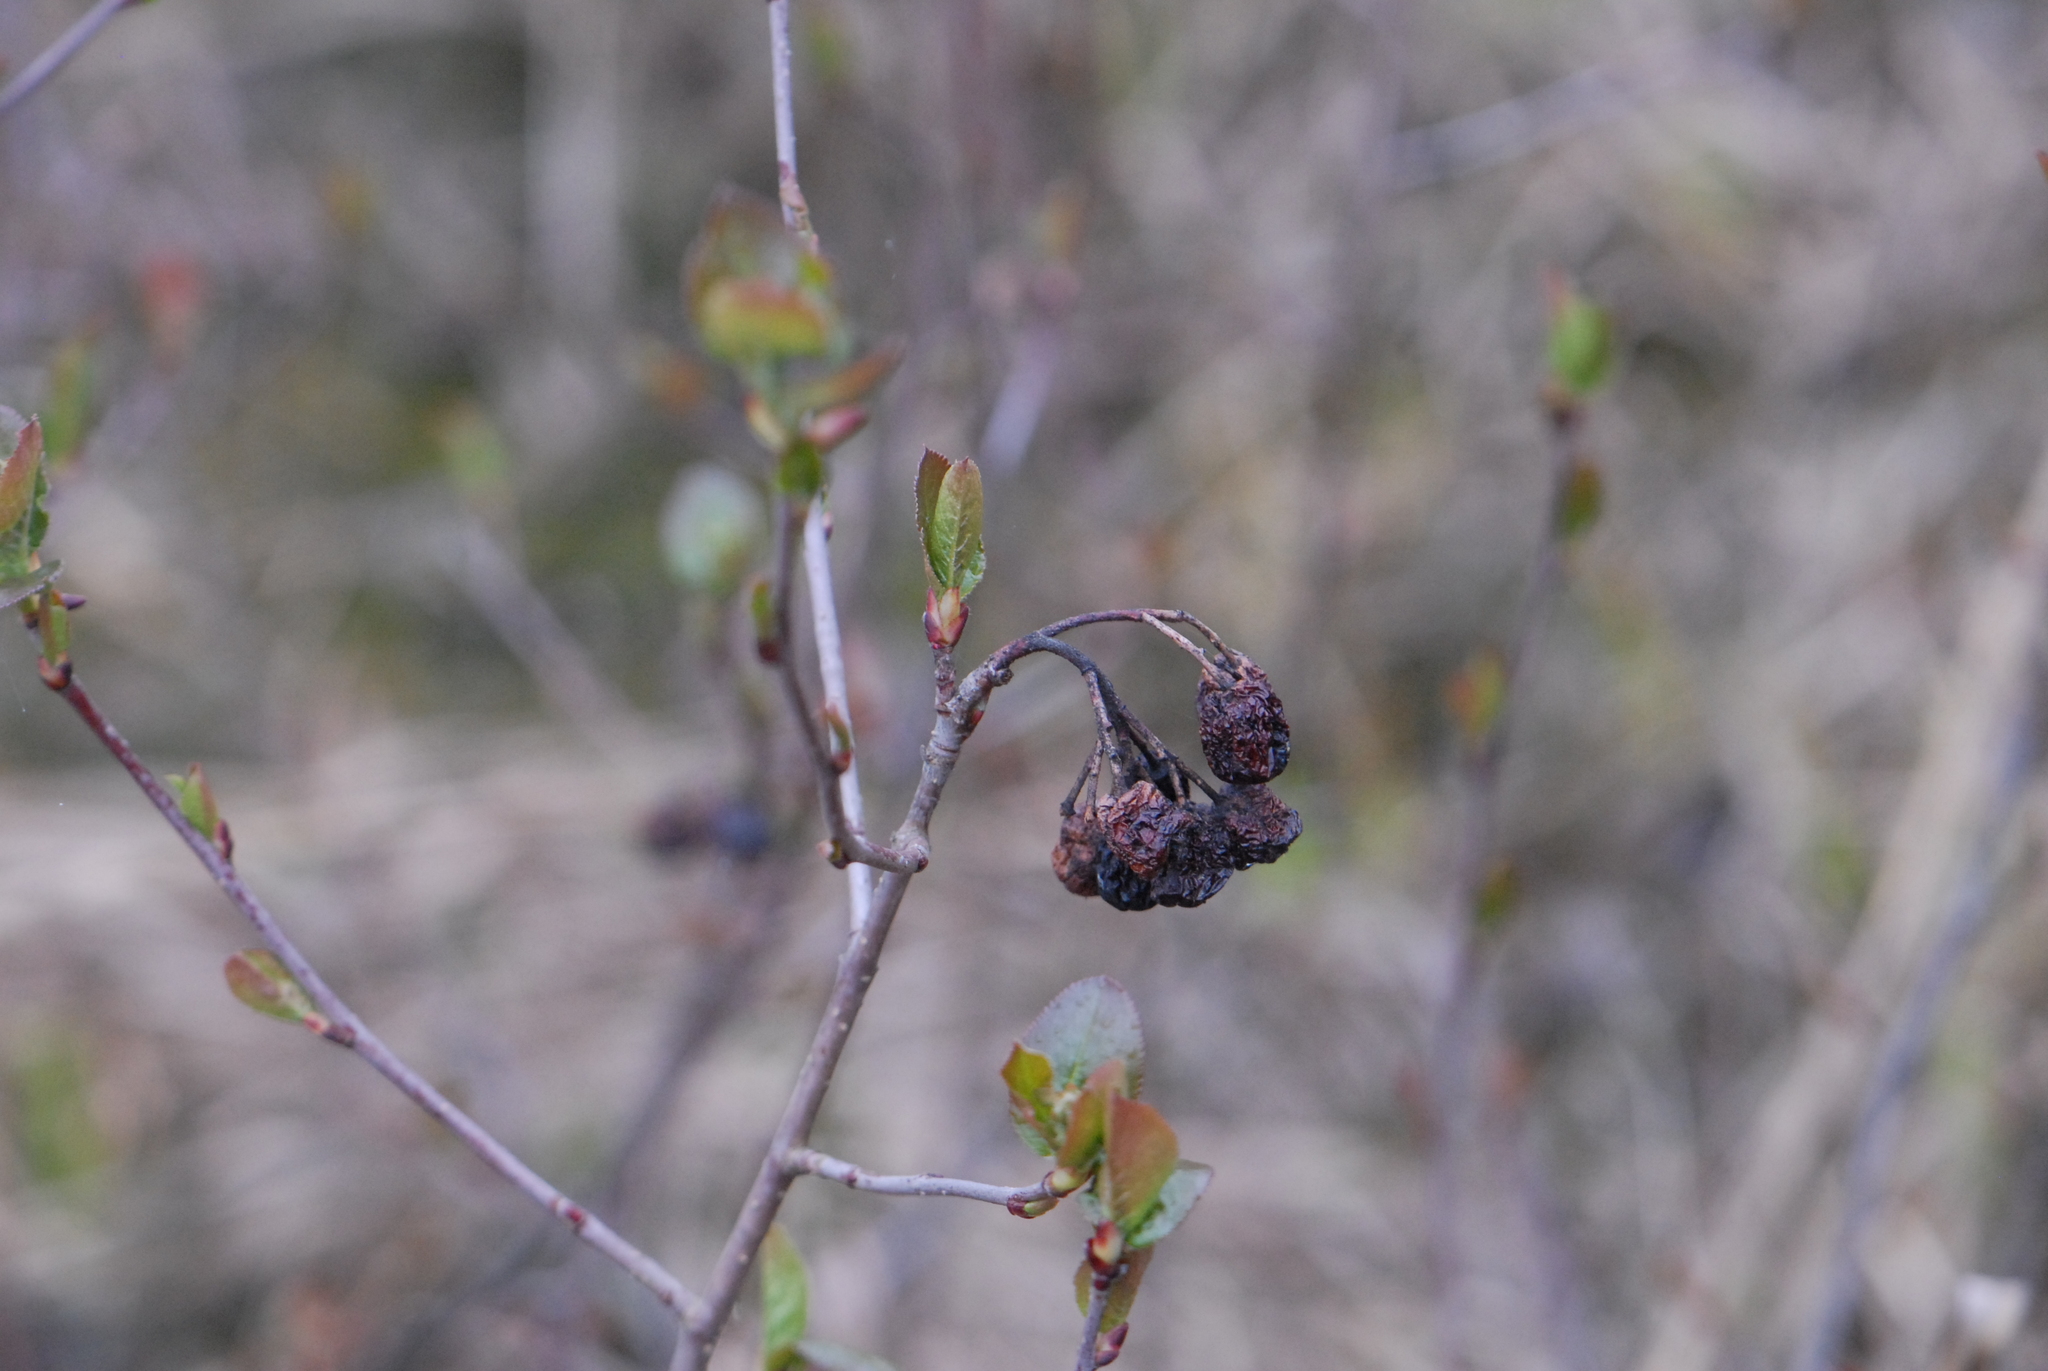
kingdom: Plantae
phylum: Tracheophyta
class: Magnoliopsida
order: Rosales
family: Rosaceae
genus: Sorbaronia
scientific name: Sorbaronia arsenii
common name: Arsène's mountain-ash
